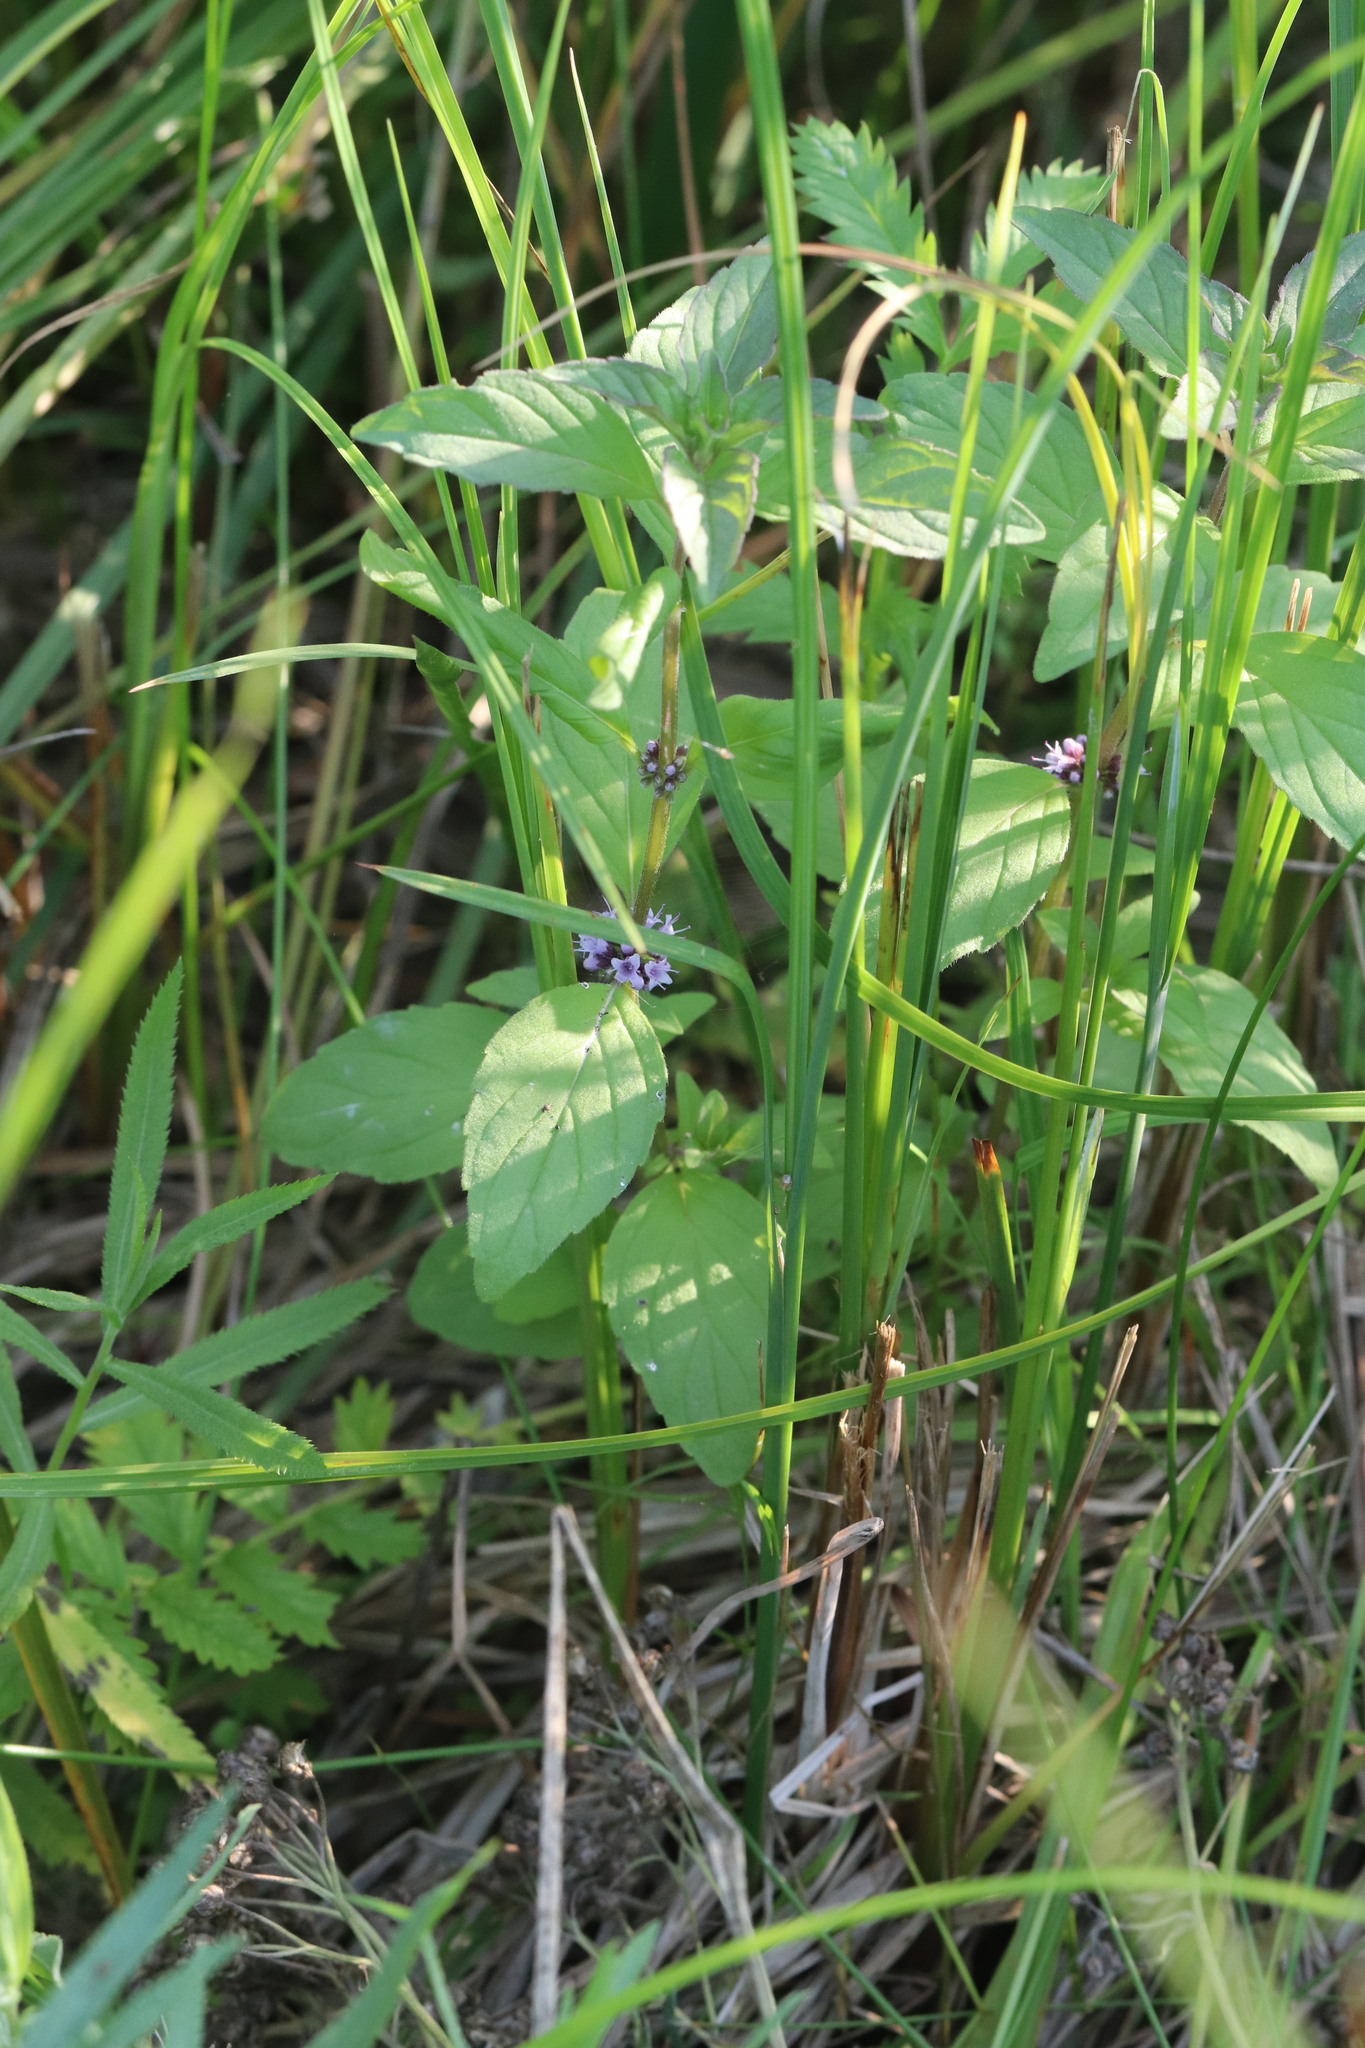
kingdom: Plantae
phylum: Tracheophyta
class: Magnoliopsida
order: Lamiales
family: Lamiaceae
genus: Mentha
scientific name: Mentha arvensis
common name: Corn mint
